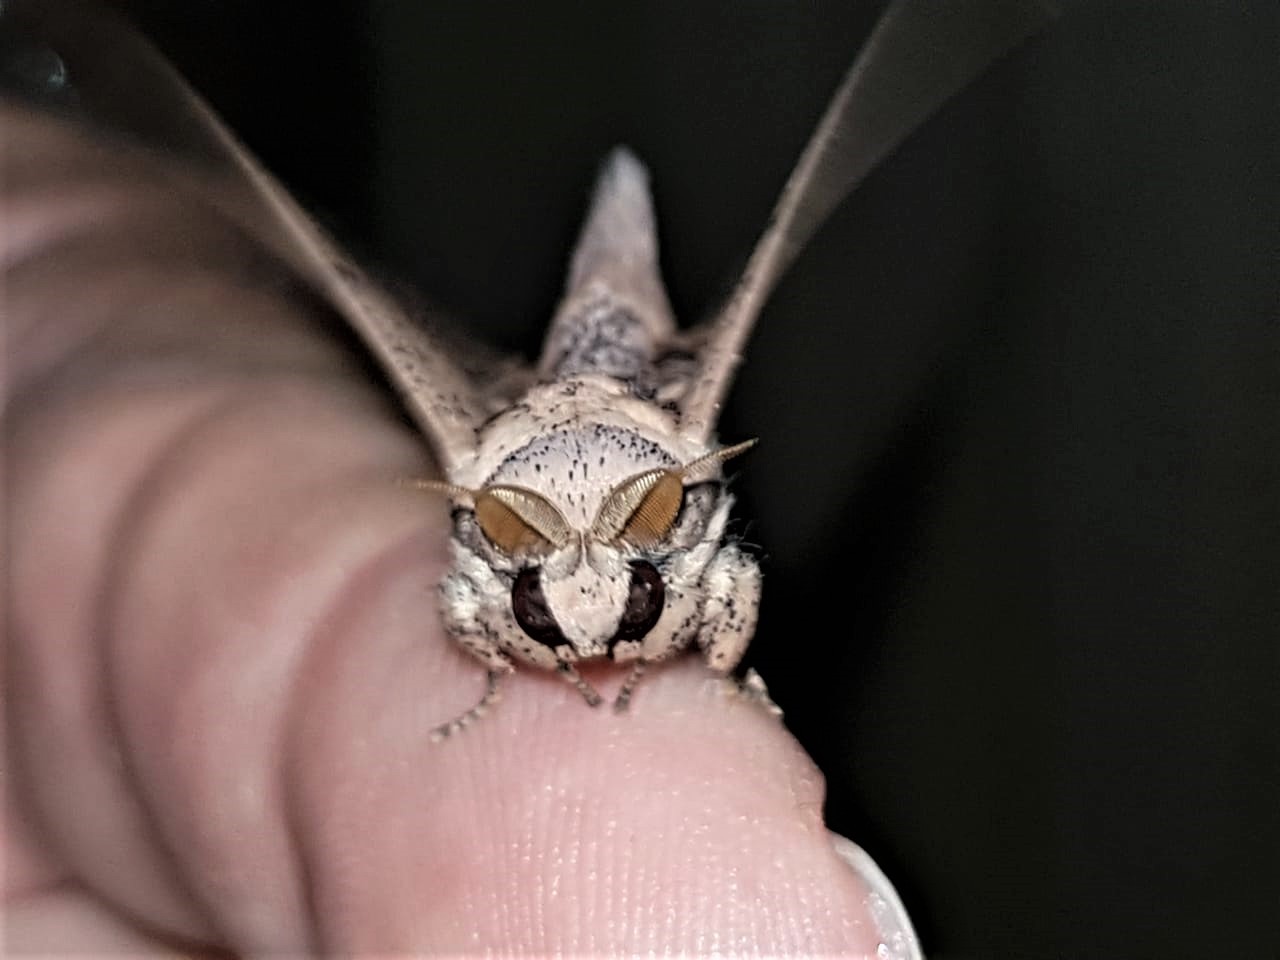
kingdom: Animalia
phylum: Arthropoda
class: Insecta
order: Lepidoptera
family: Mimallonidae
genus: Cicinnus
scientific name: Cicinnus candacus
